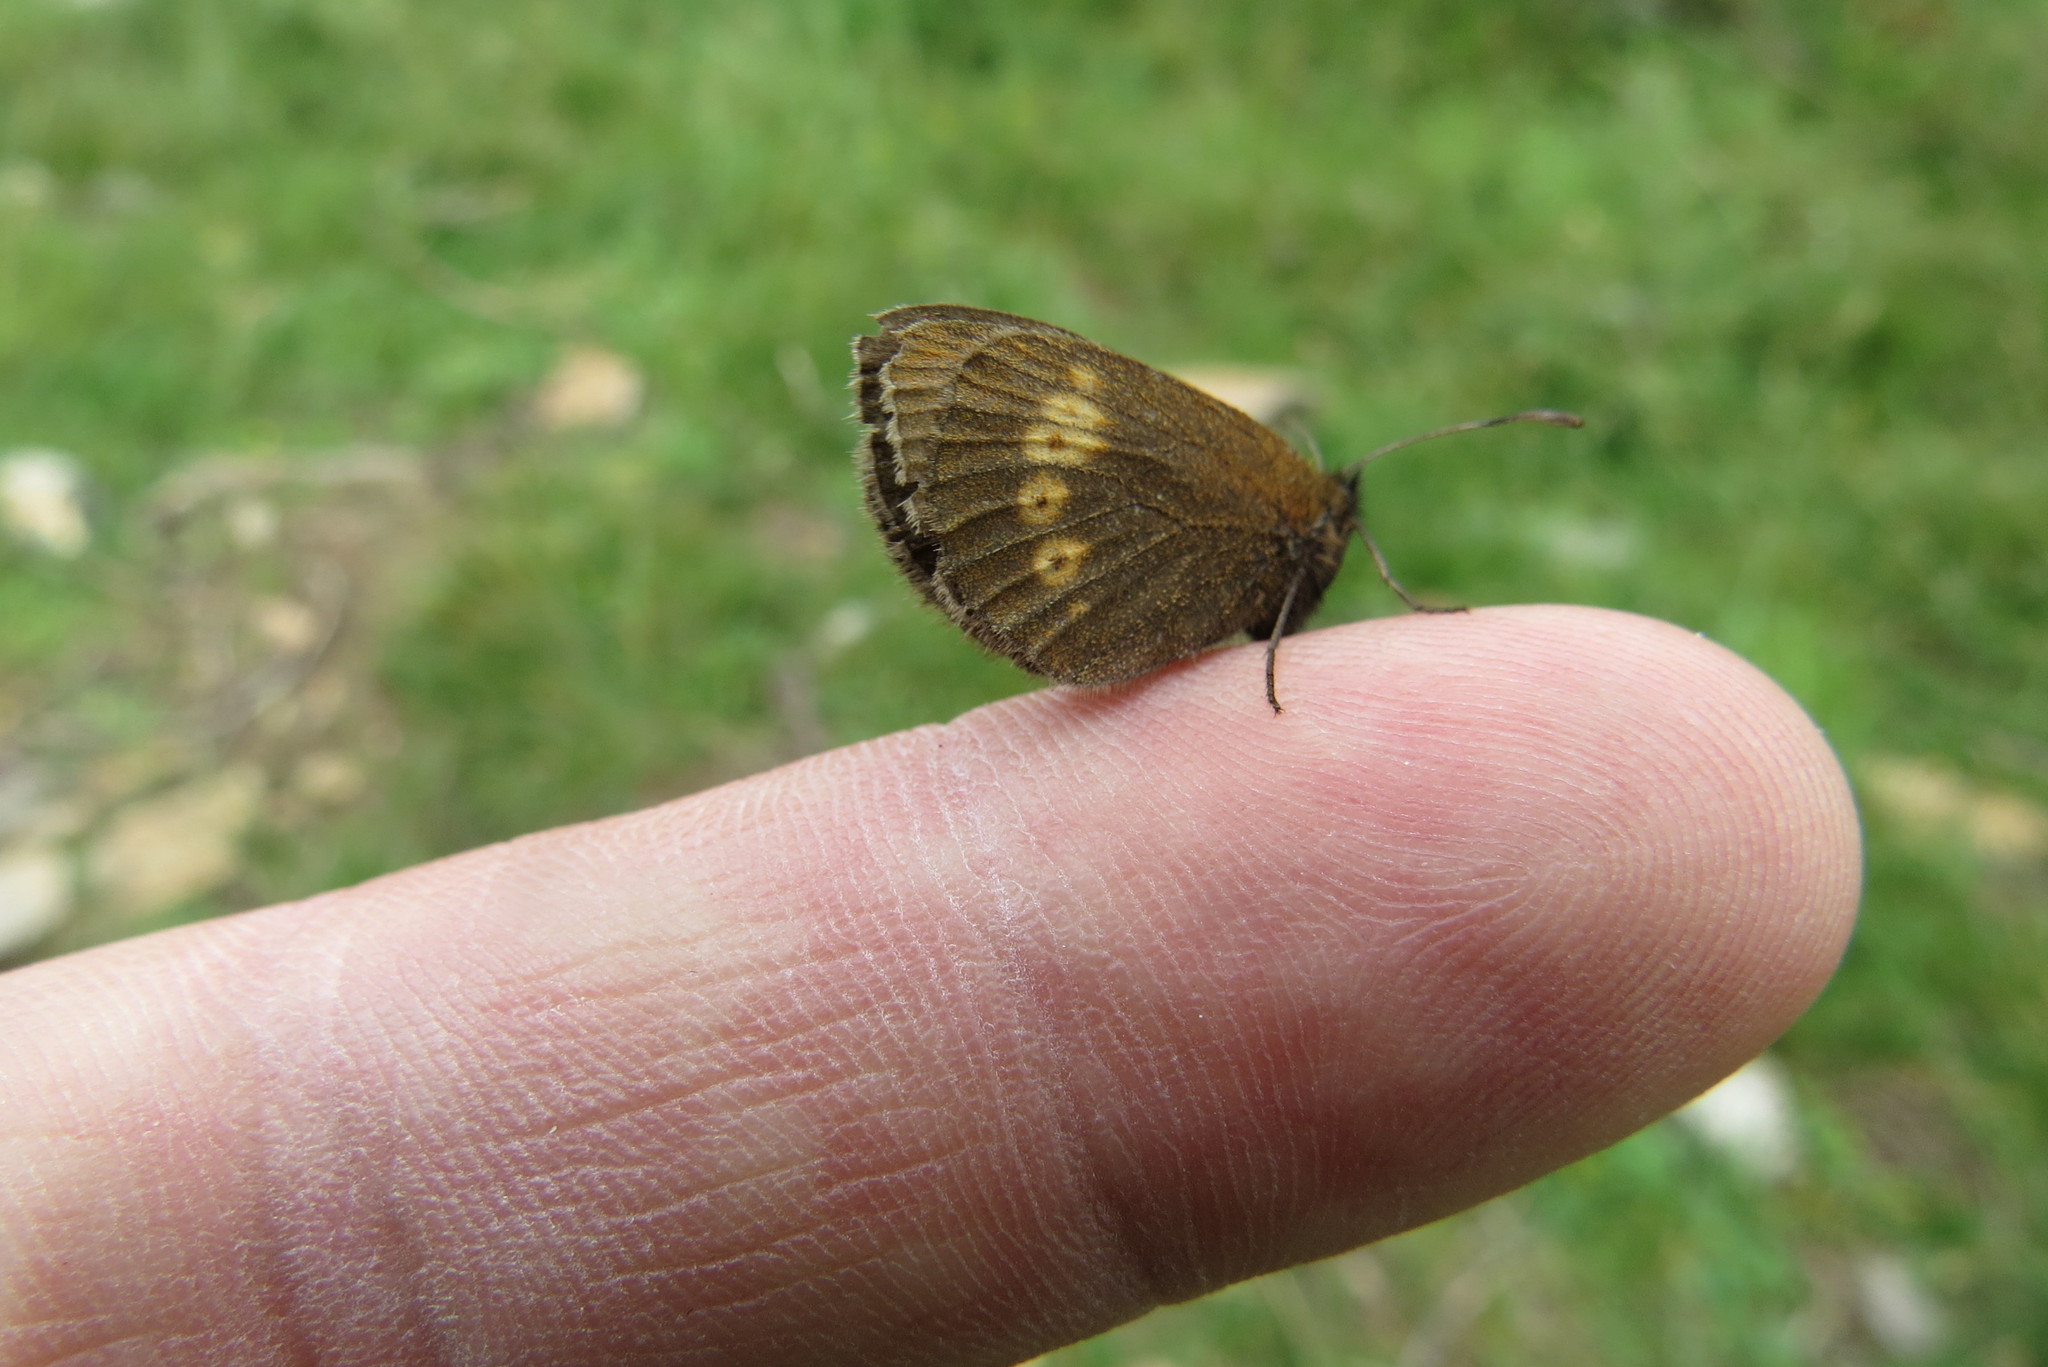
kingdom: Animalia
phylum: Arthropoda
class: Insecta
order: Lepidoptera
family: Nymphalidae
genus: Erebia
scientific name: Erebia melampus
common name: Lesser mountain ringlet
